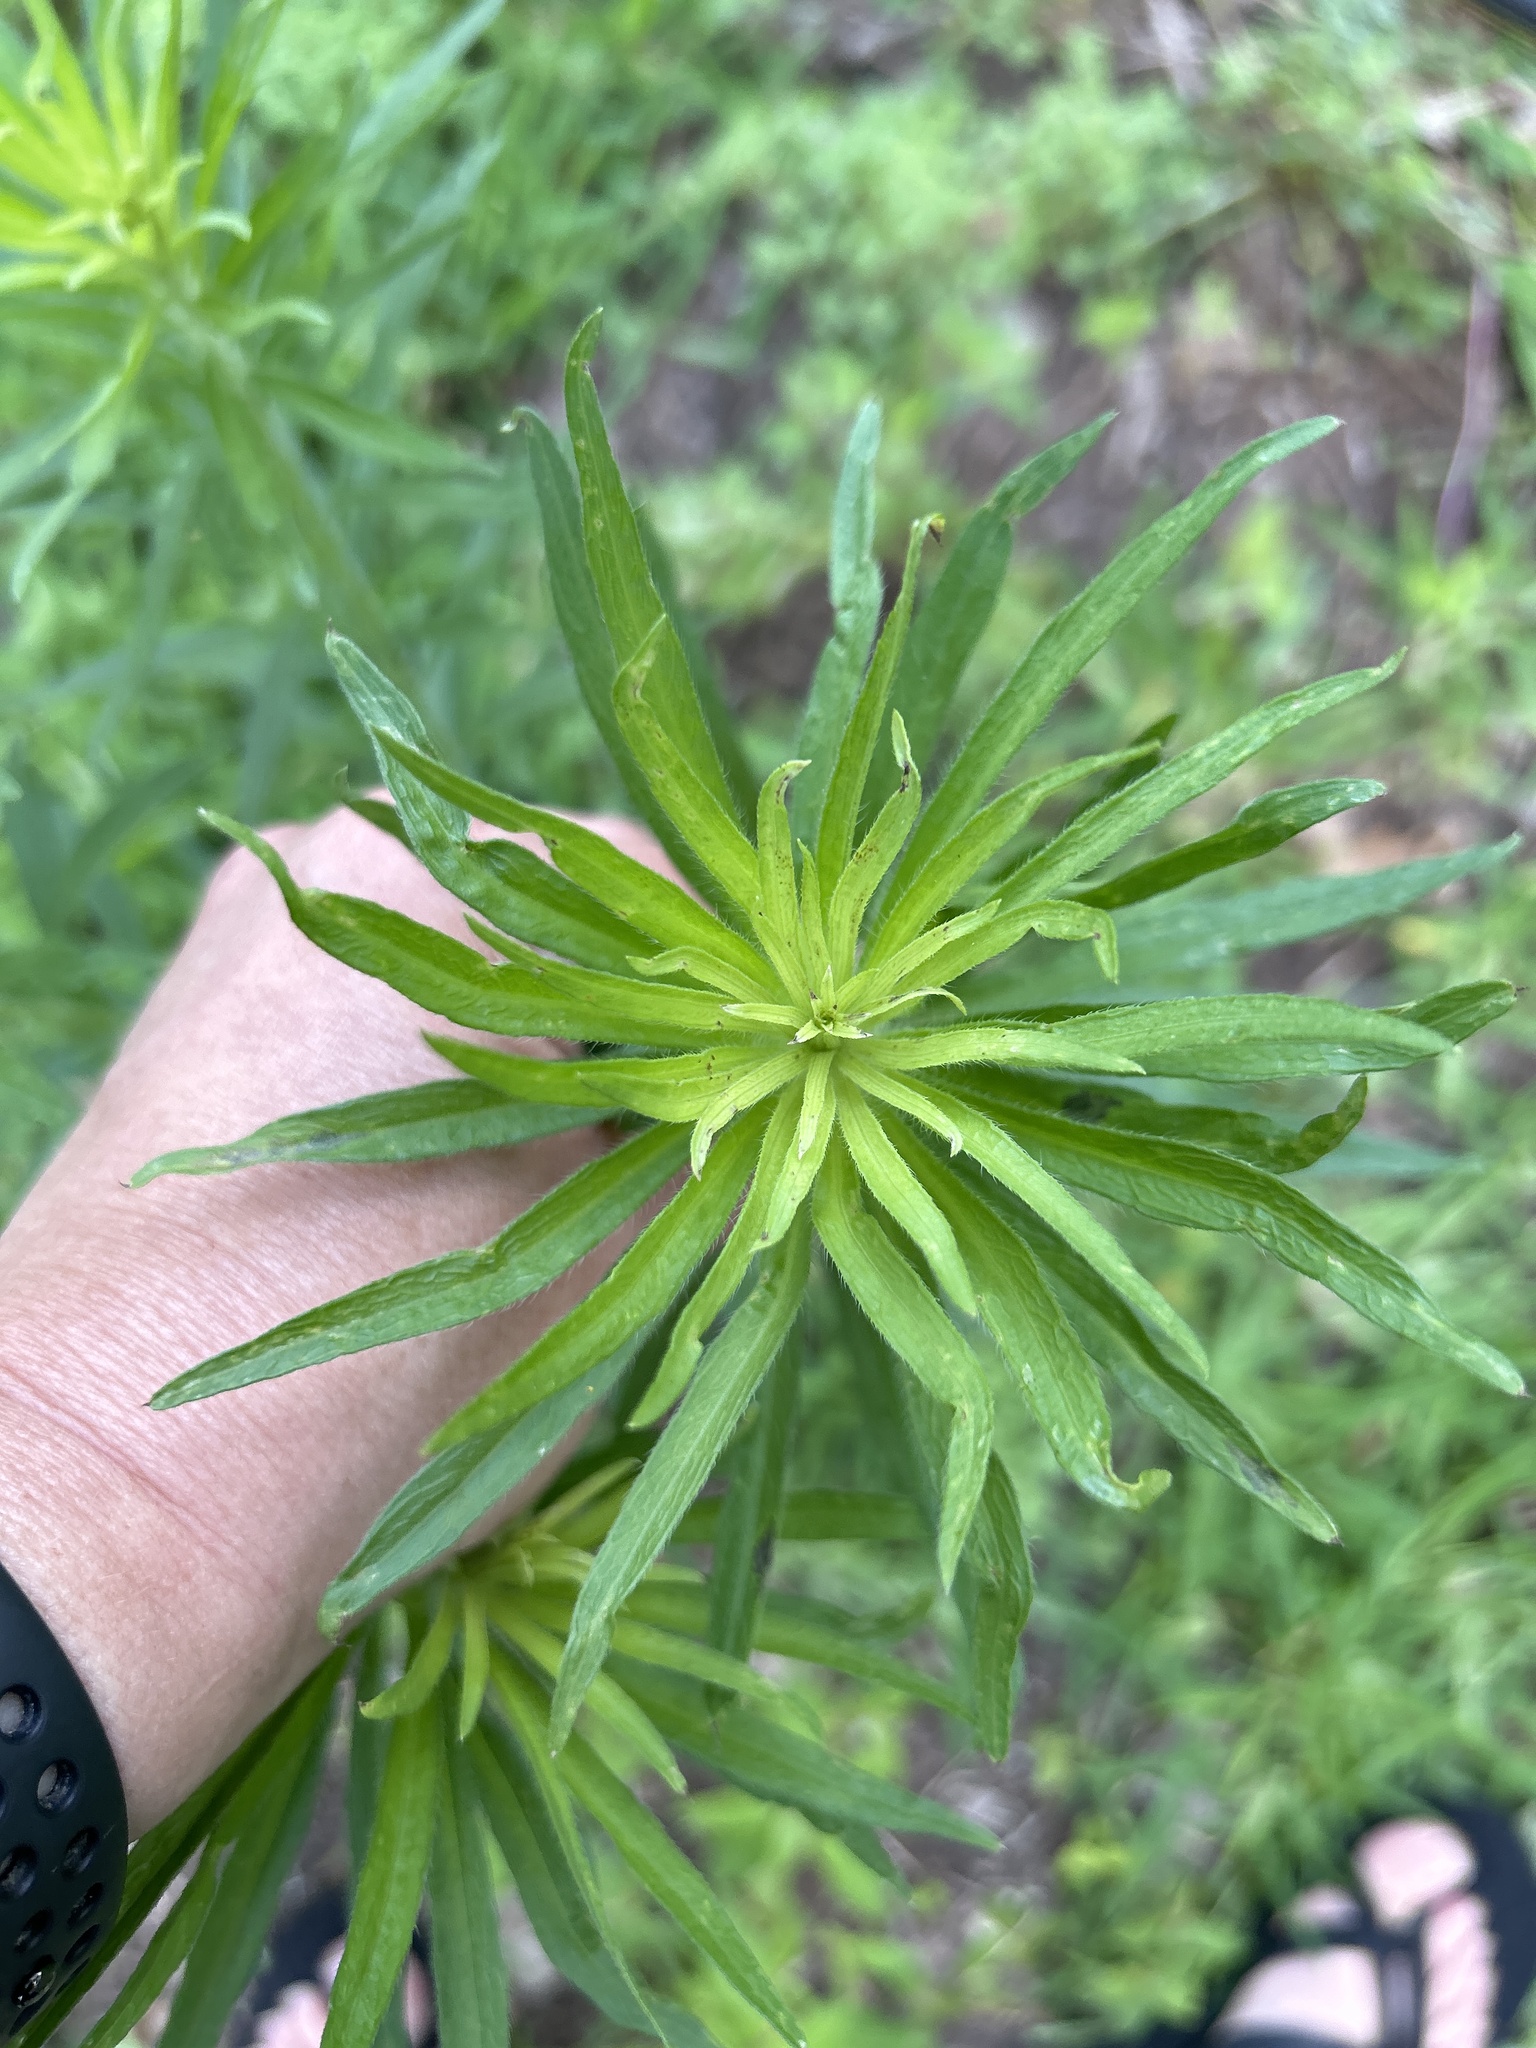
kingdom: Plantae
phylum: Tracheophyta
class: Magnoliopsida
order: Asterales
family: Asteraceae
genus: Erigeron
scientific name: Erigeron canadensis
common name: Canadian fleabane
